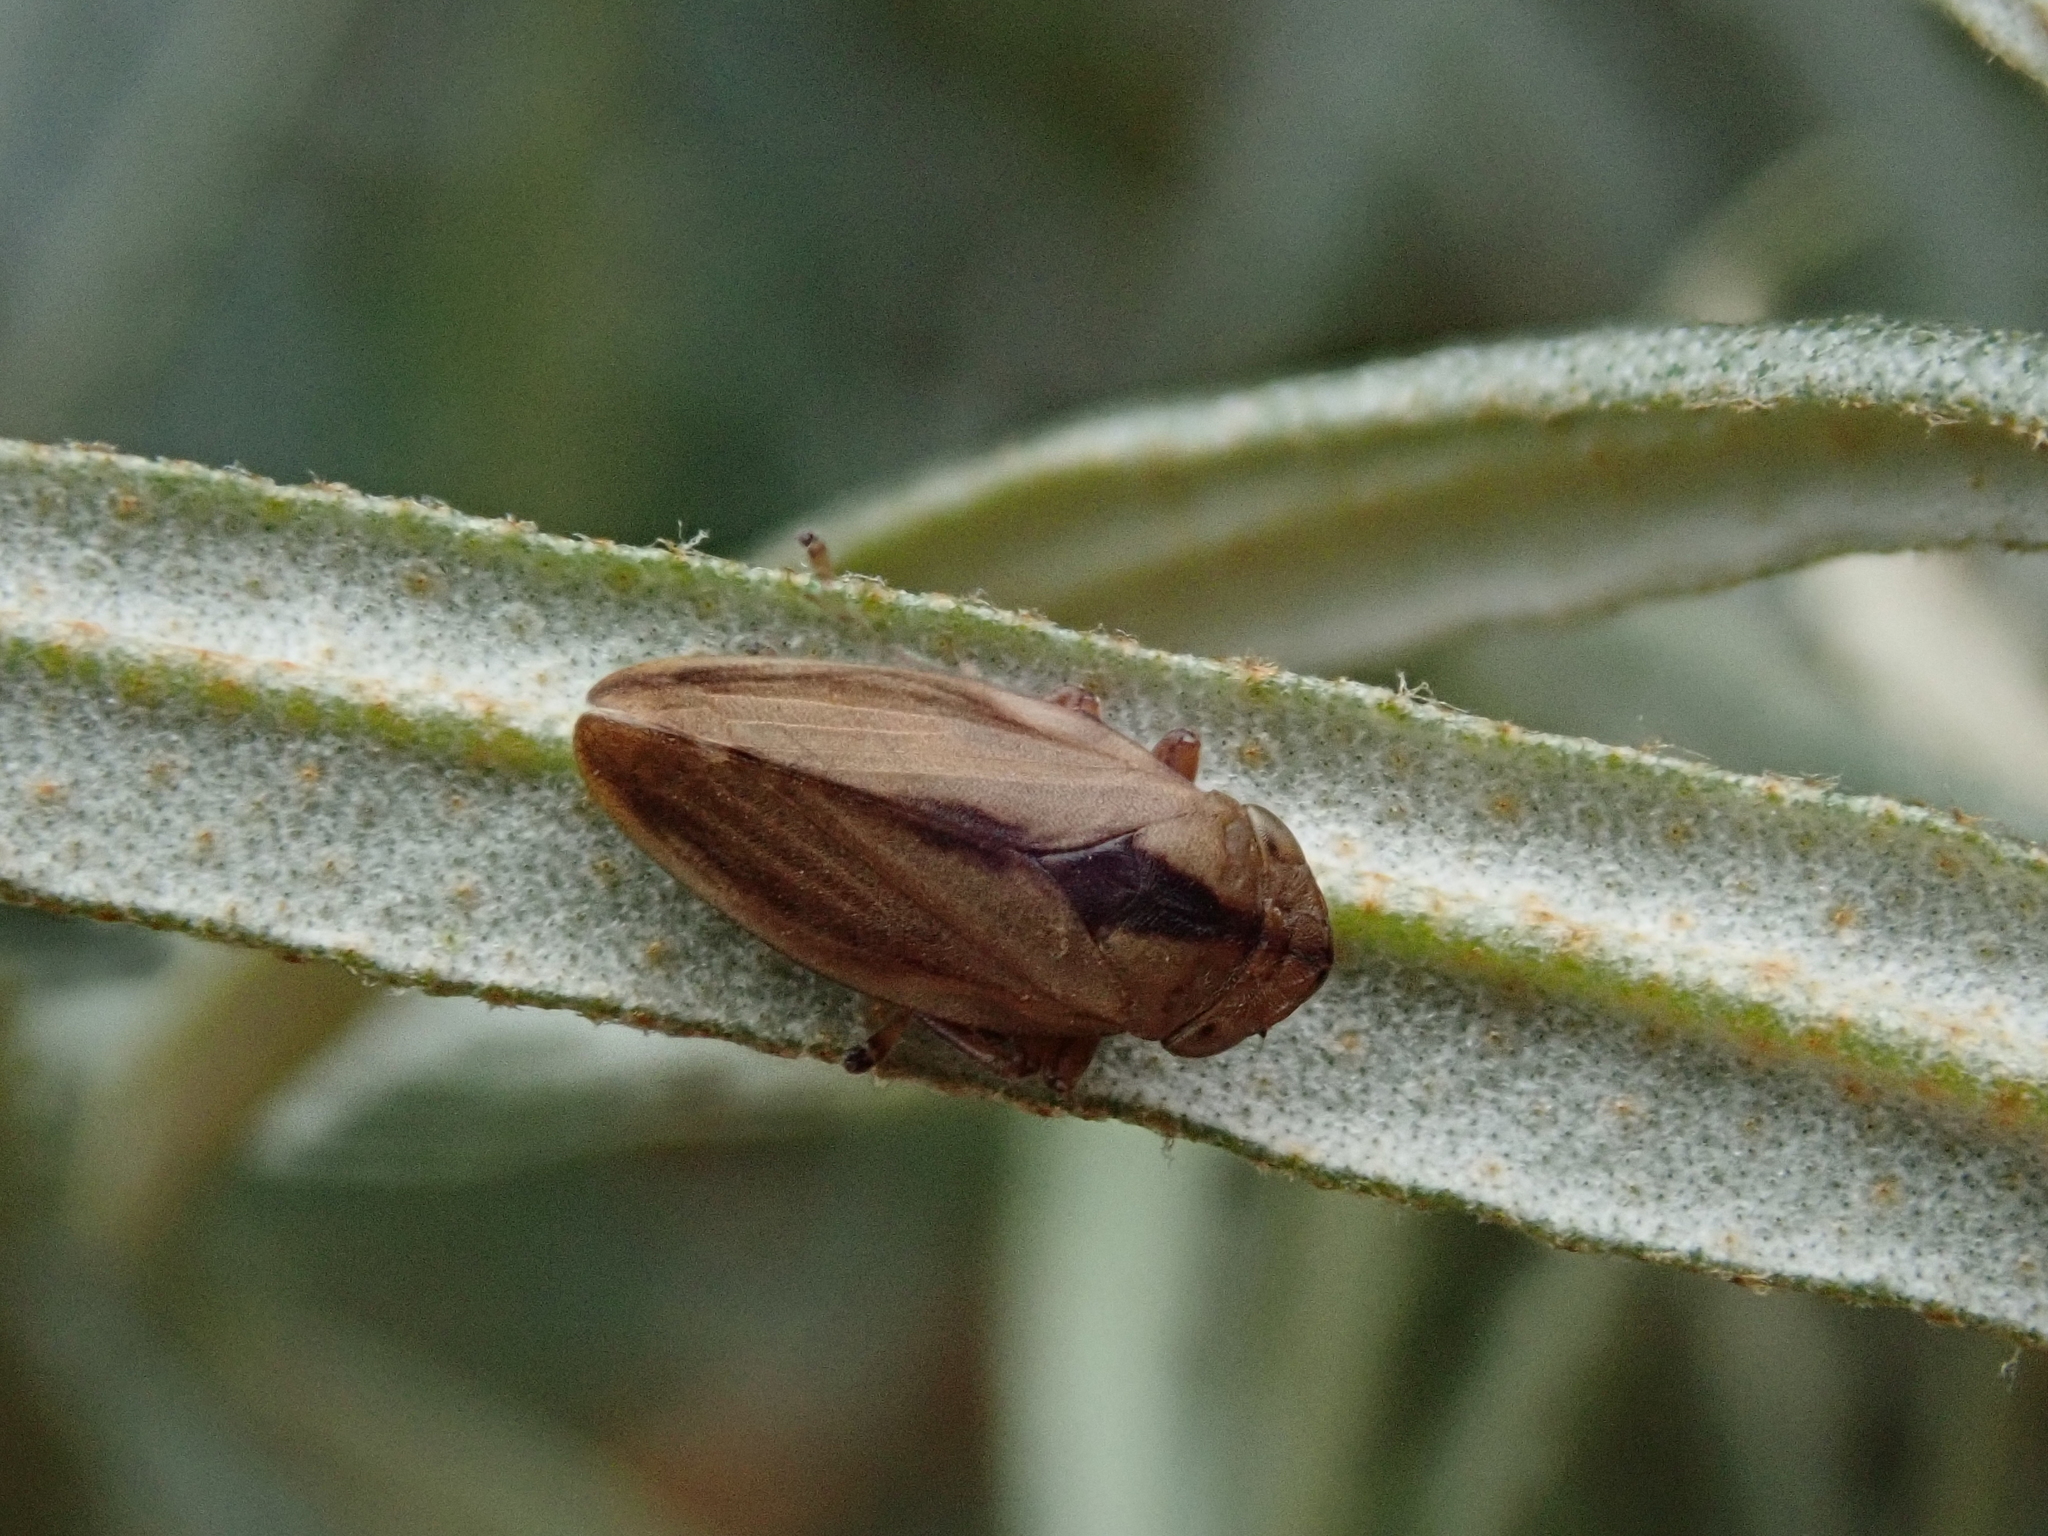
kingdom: Animalia
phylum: Arthropoda
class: Insecta
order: Hemiptera
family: Aphrophoridae
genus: Philaenus
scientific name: Philaenus spumarius
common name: Meadow spittlebug
